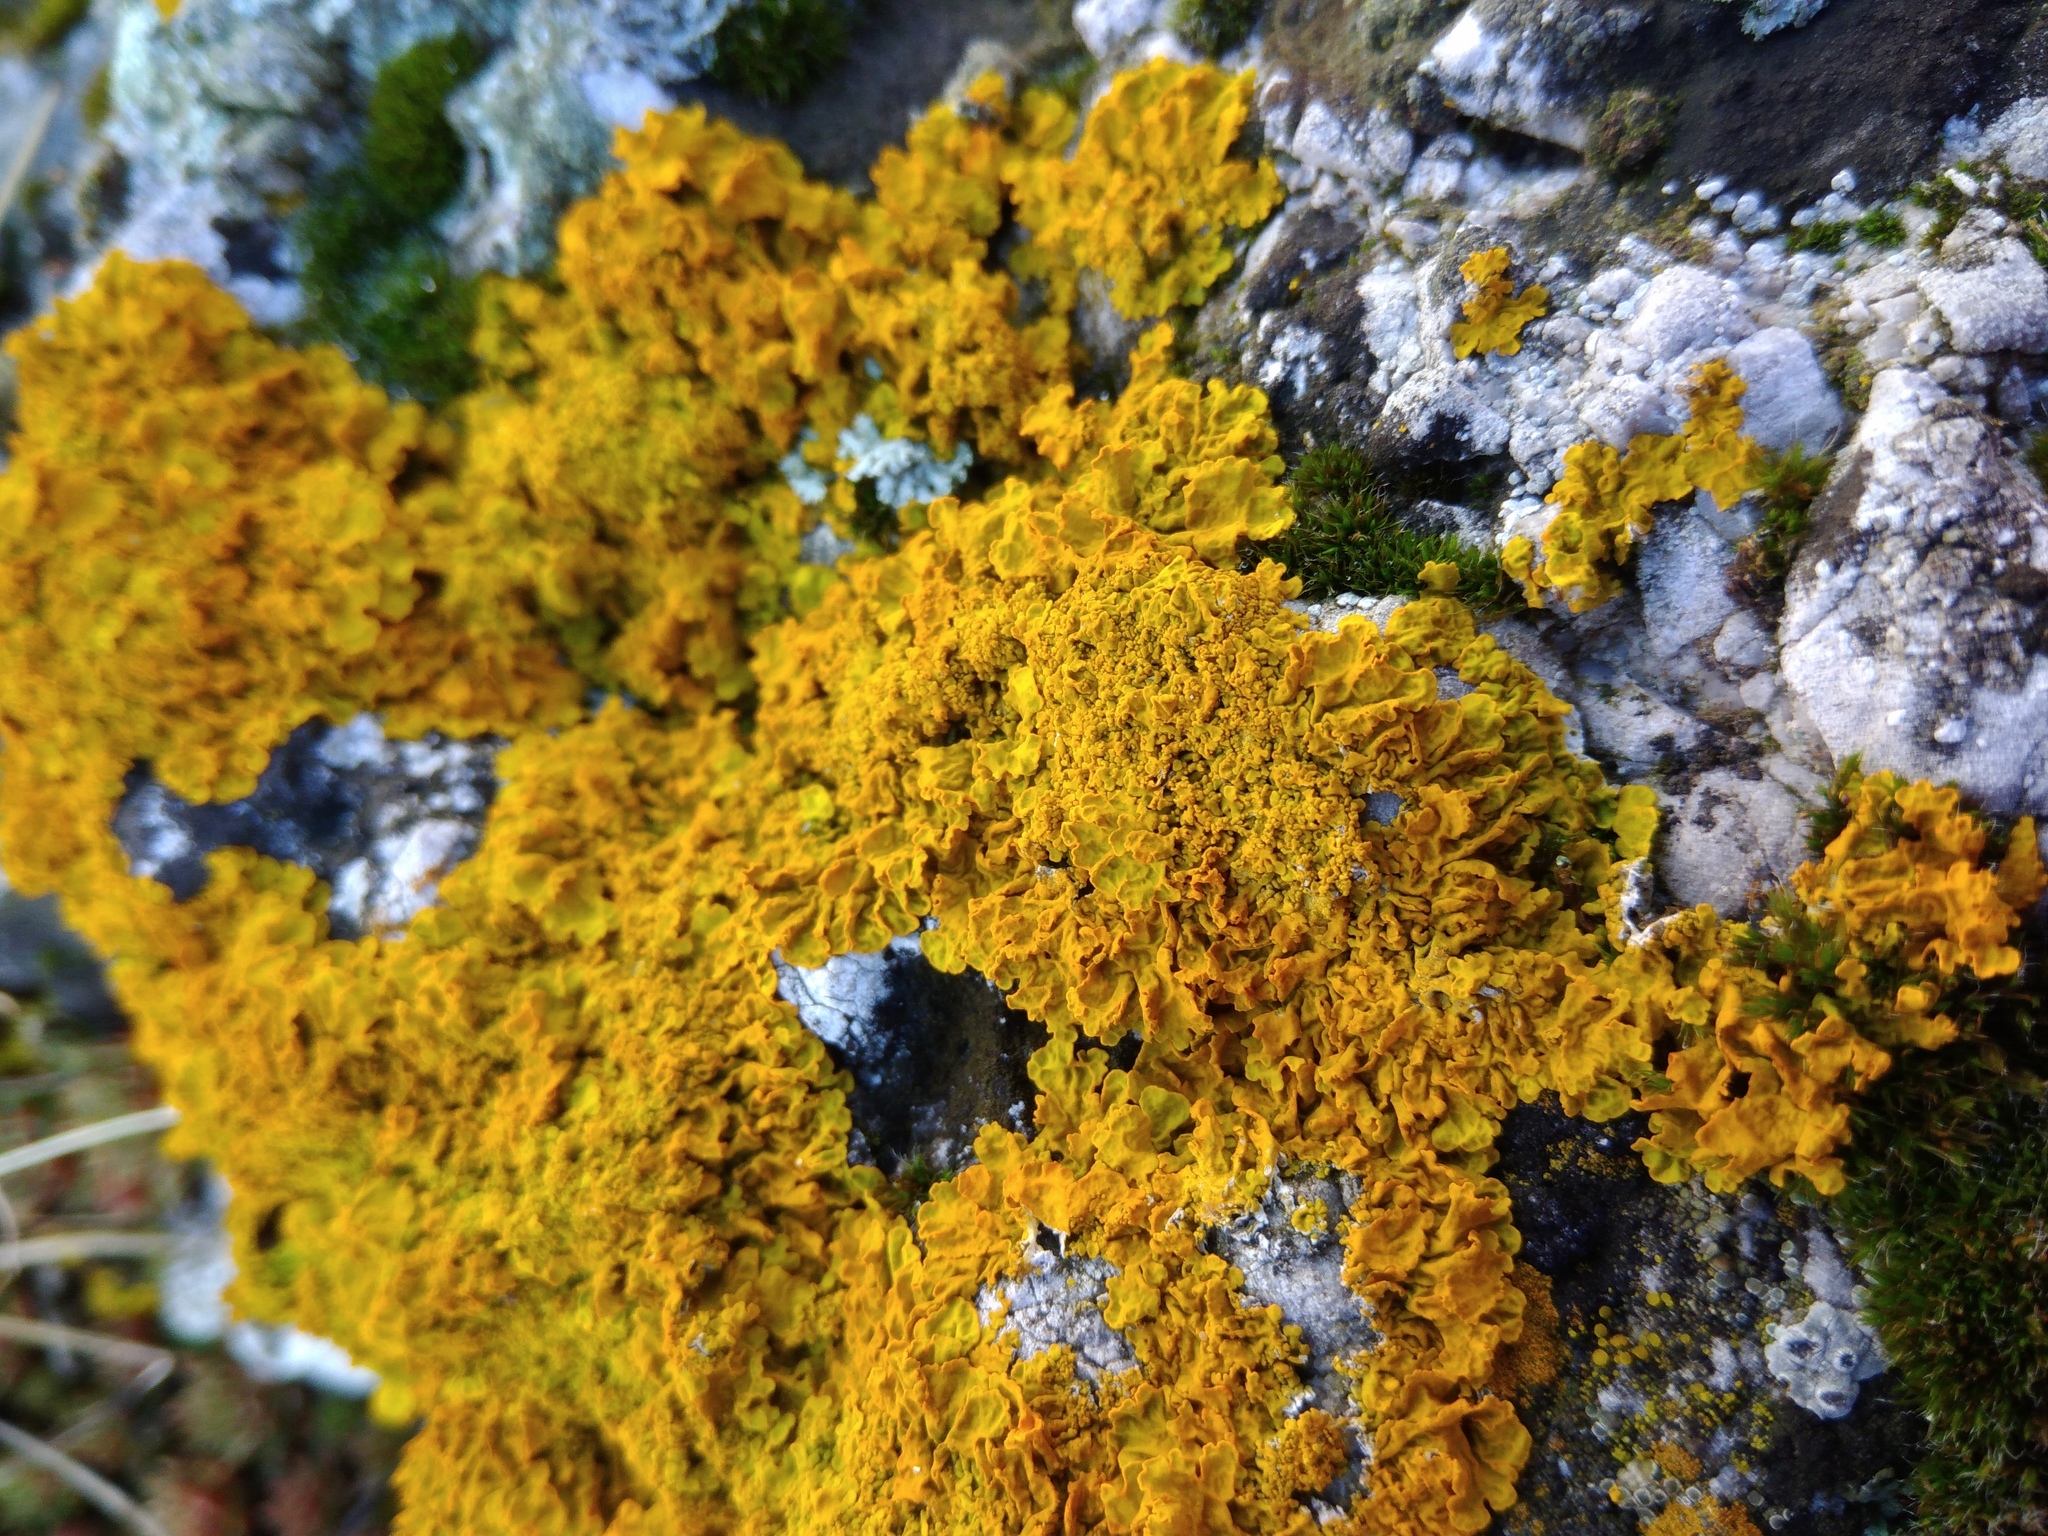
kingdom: Fungi
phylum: Ascomycota
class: Lecanoromycetes
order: Teloschistales
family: Teloschistaceae
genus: Xanthoria
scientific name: Xanthoria calcicola
